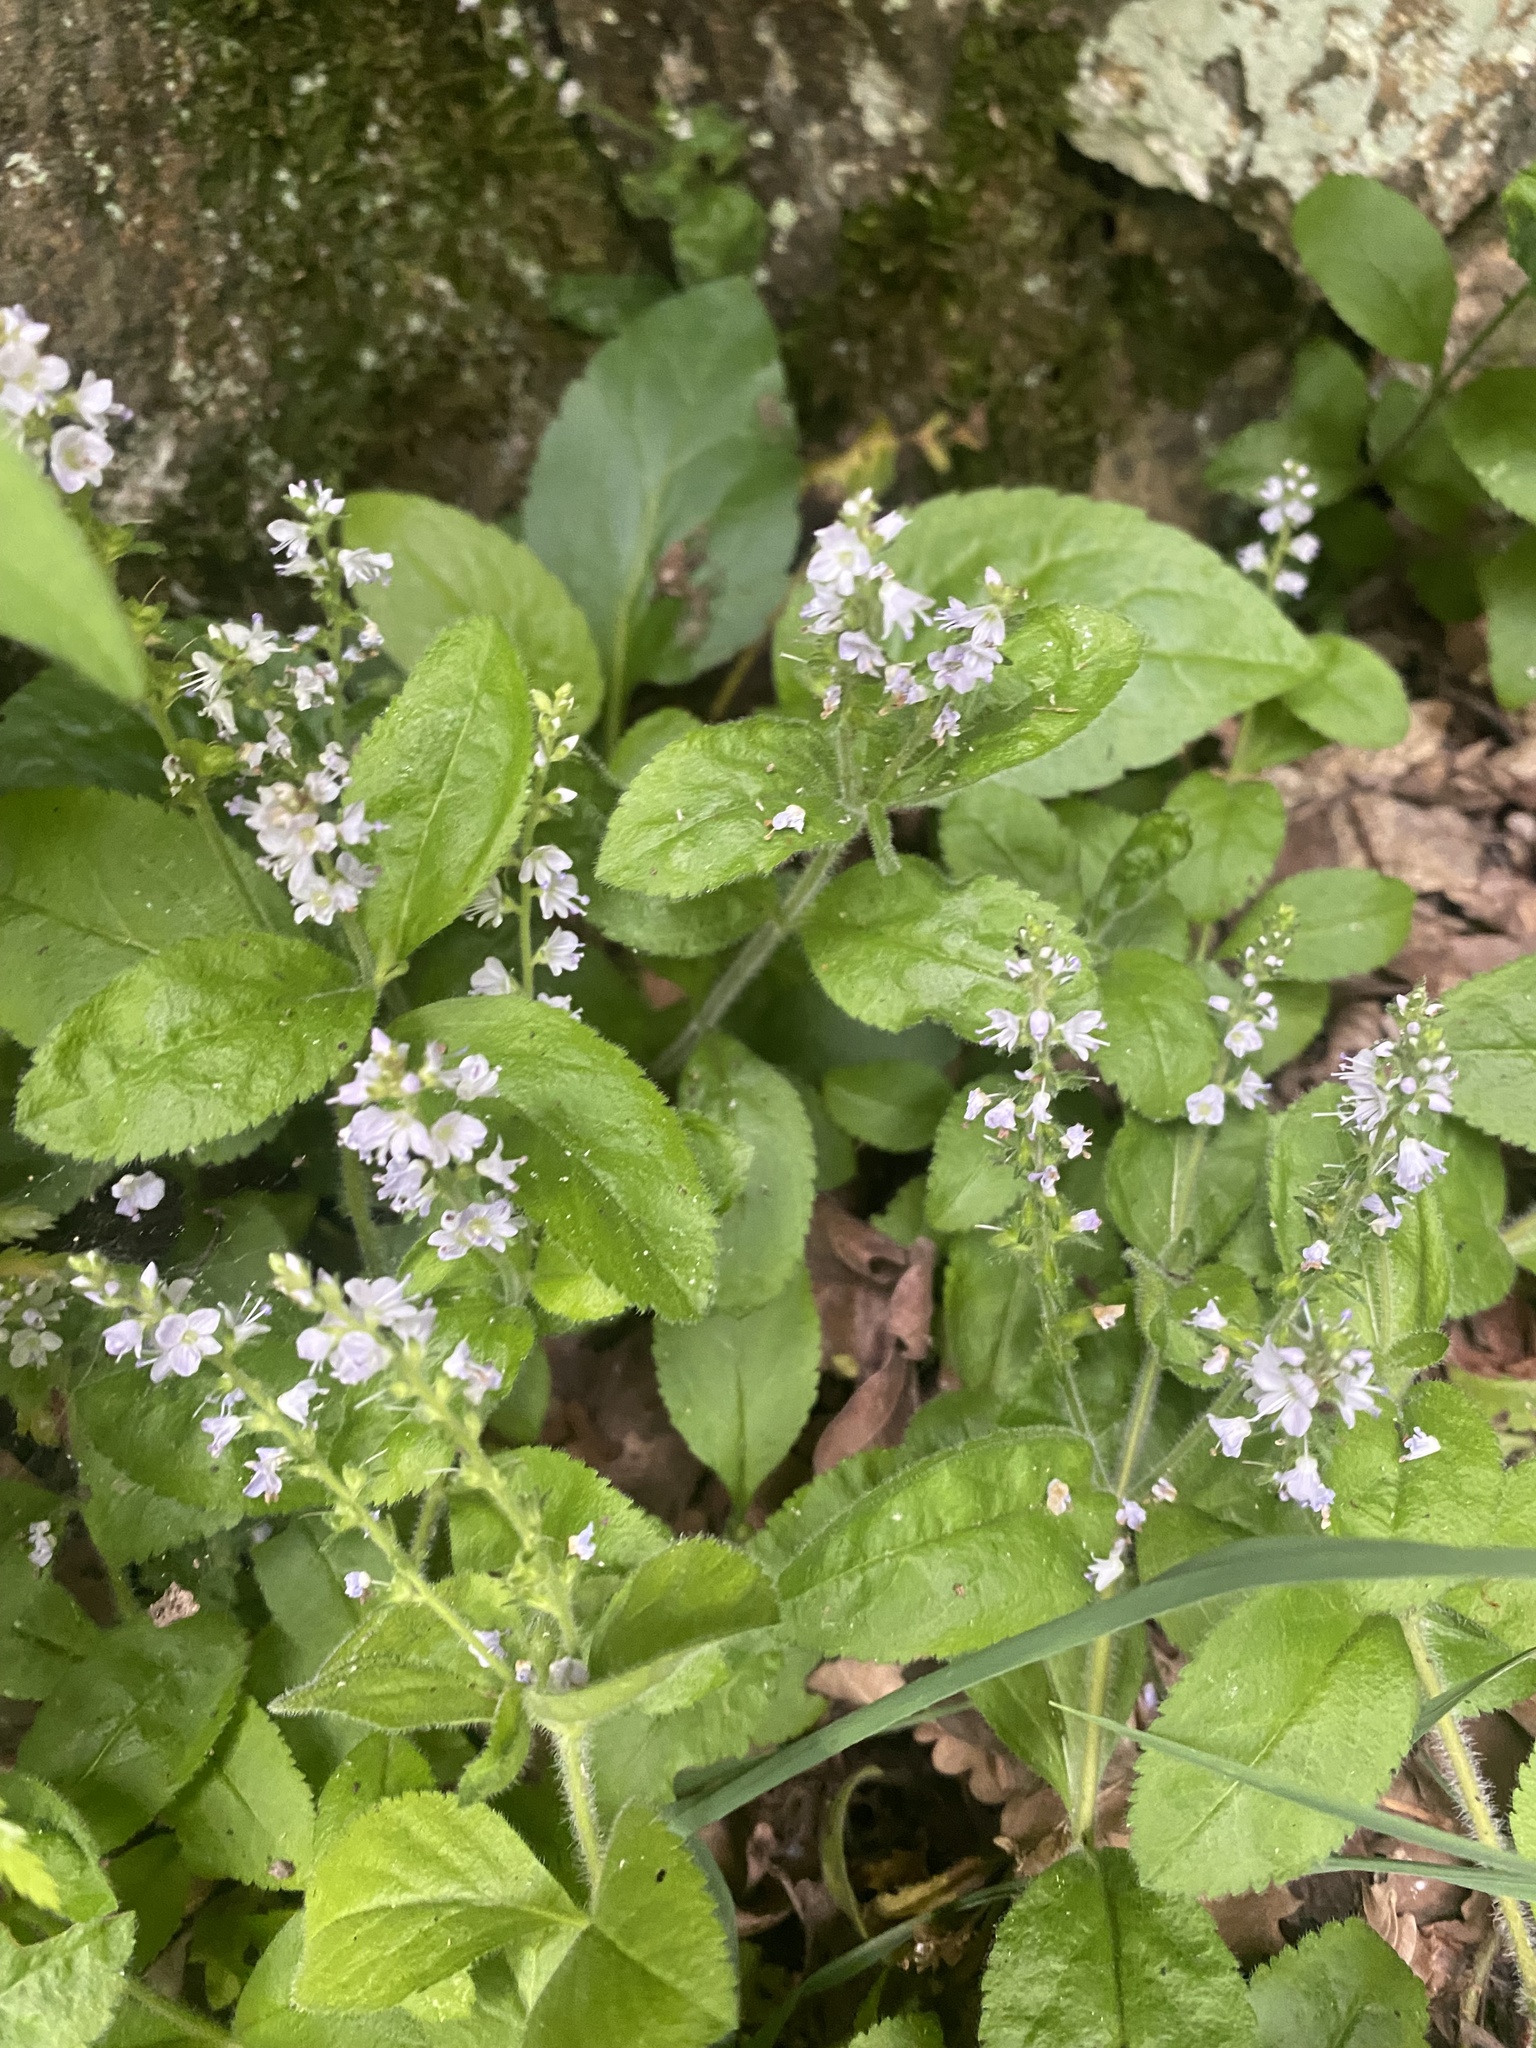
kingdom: Plantae
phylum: Tracheophyta
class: Magnoliopsida
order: Lamiales
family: Plantaginaceae
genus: Veronica
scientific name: Veronica officinalis
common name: Common speedwell
